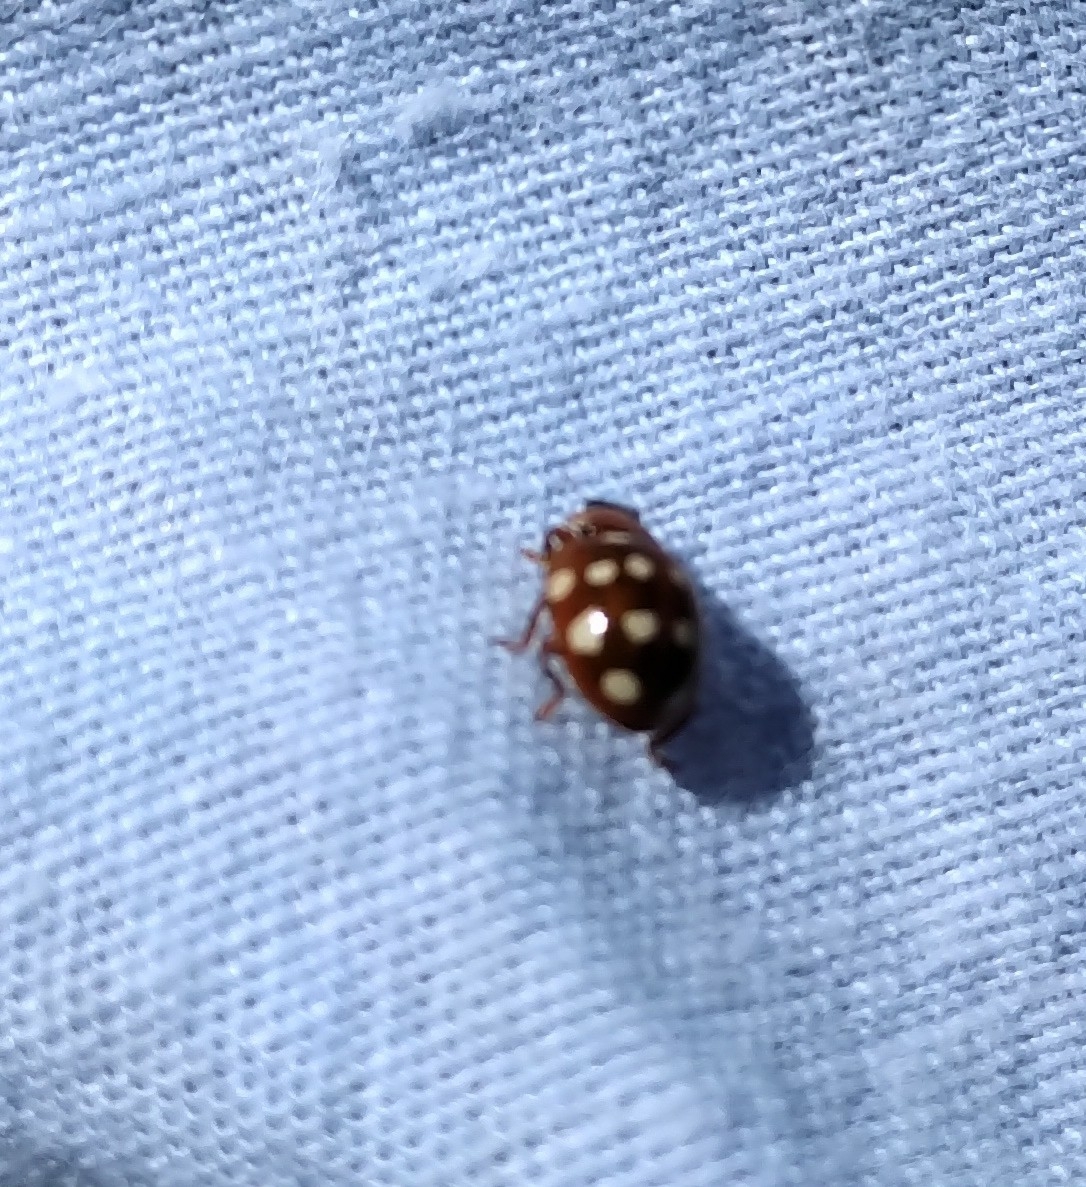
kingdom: Animalia
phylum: Arthropoda
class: Insecta
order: Coleoptera
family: Coccinellidae
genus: Calvia
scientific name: Calvia quatuordecimguttata
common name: Cream-spot ladybird
